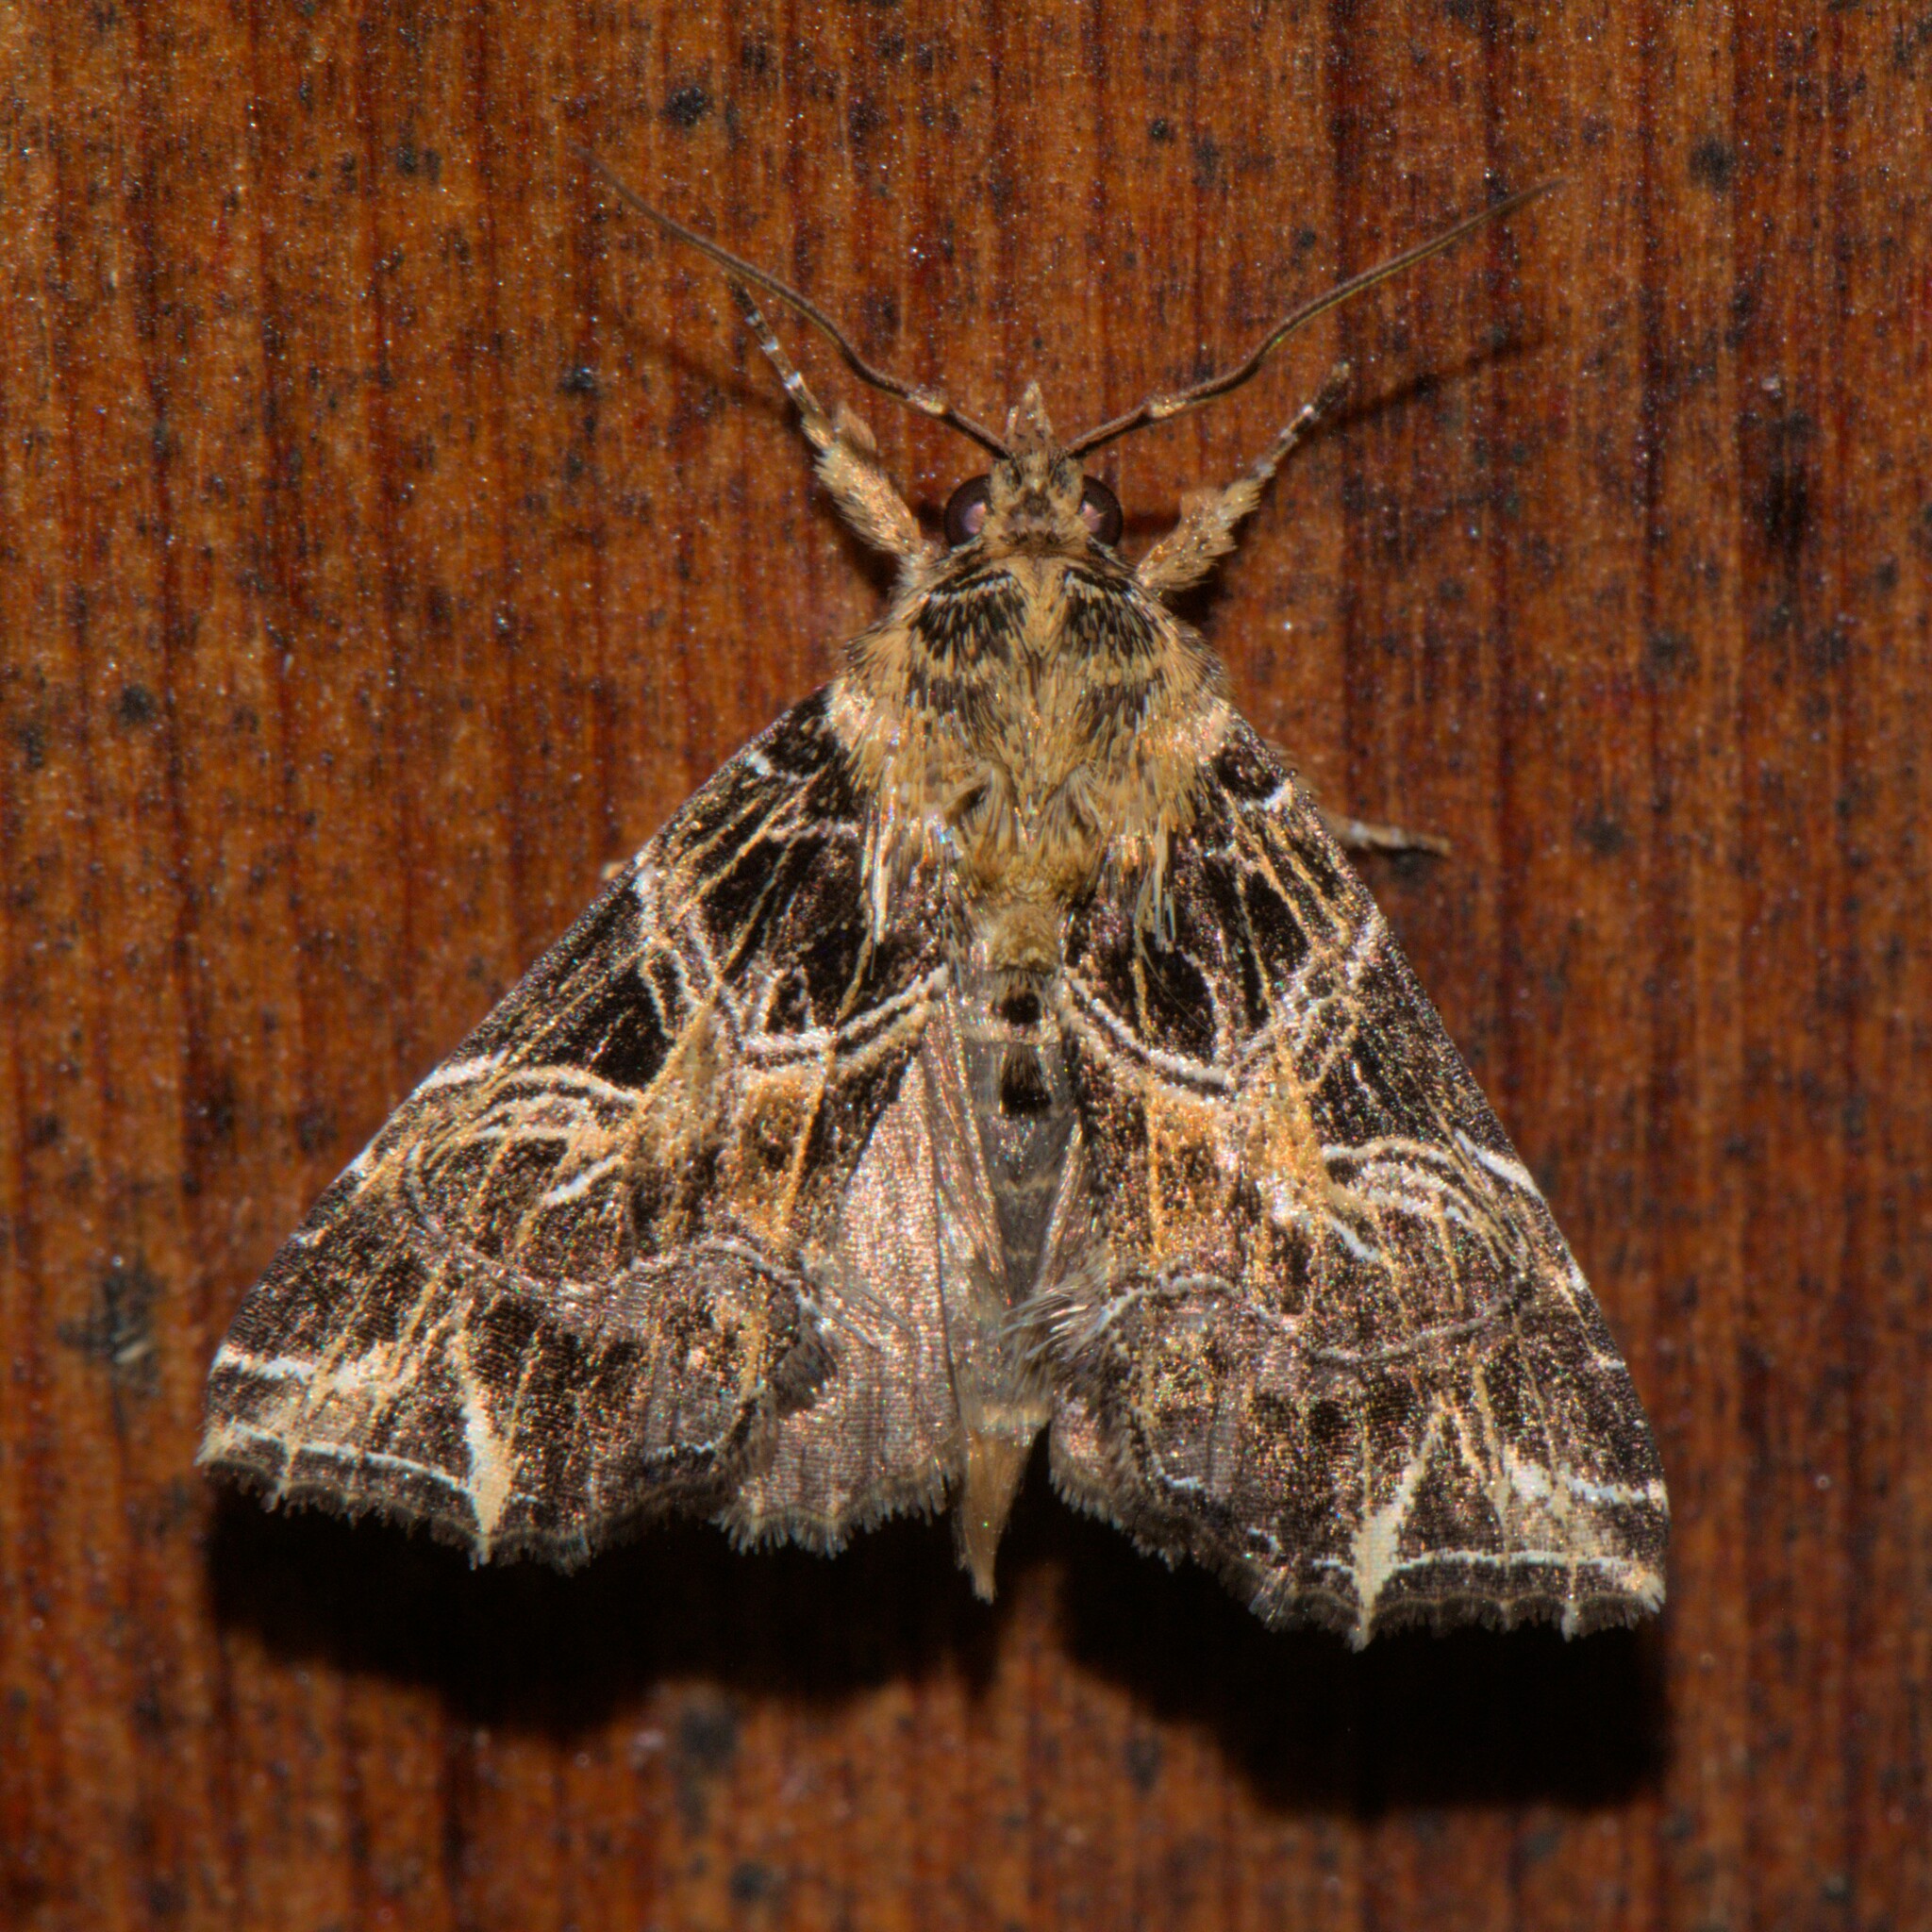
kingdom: Animalia
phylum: Arthropoda
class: Insecta
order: Lepidoptera
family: Noctuidae
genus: Callopistria
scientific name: Callopistria aethiops
